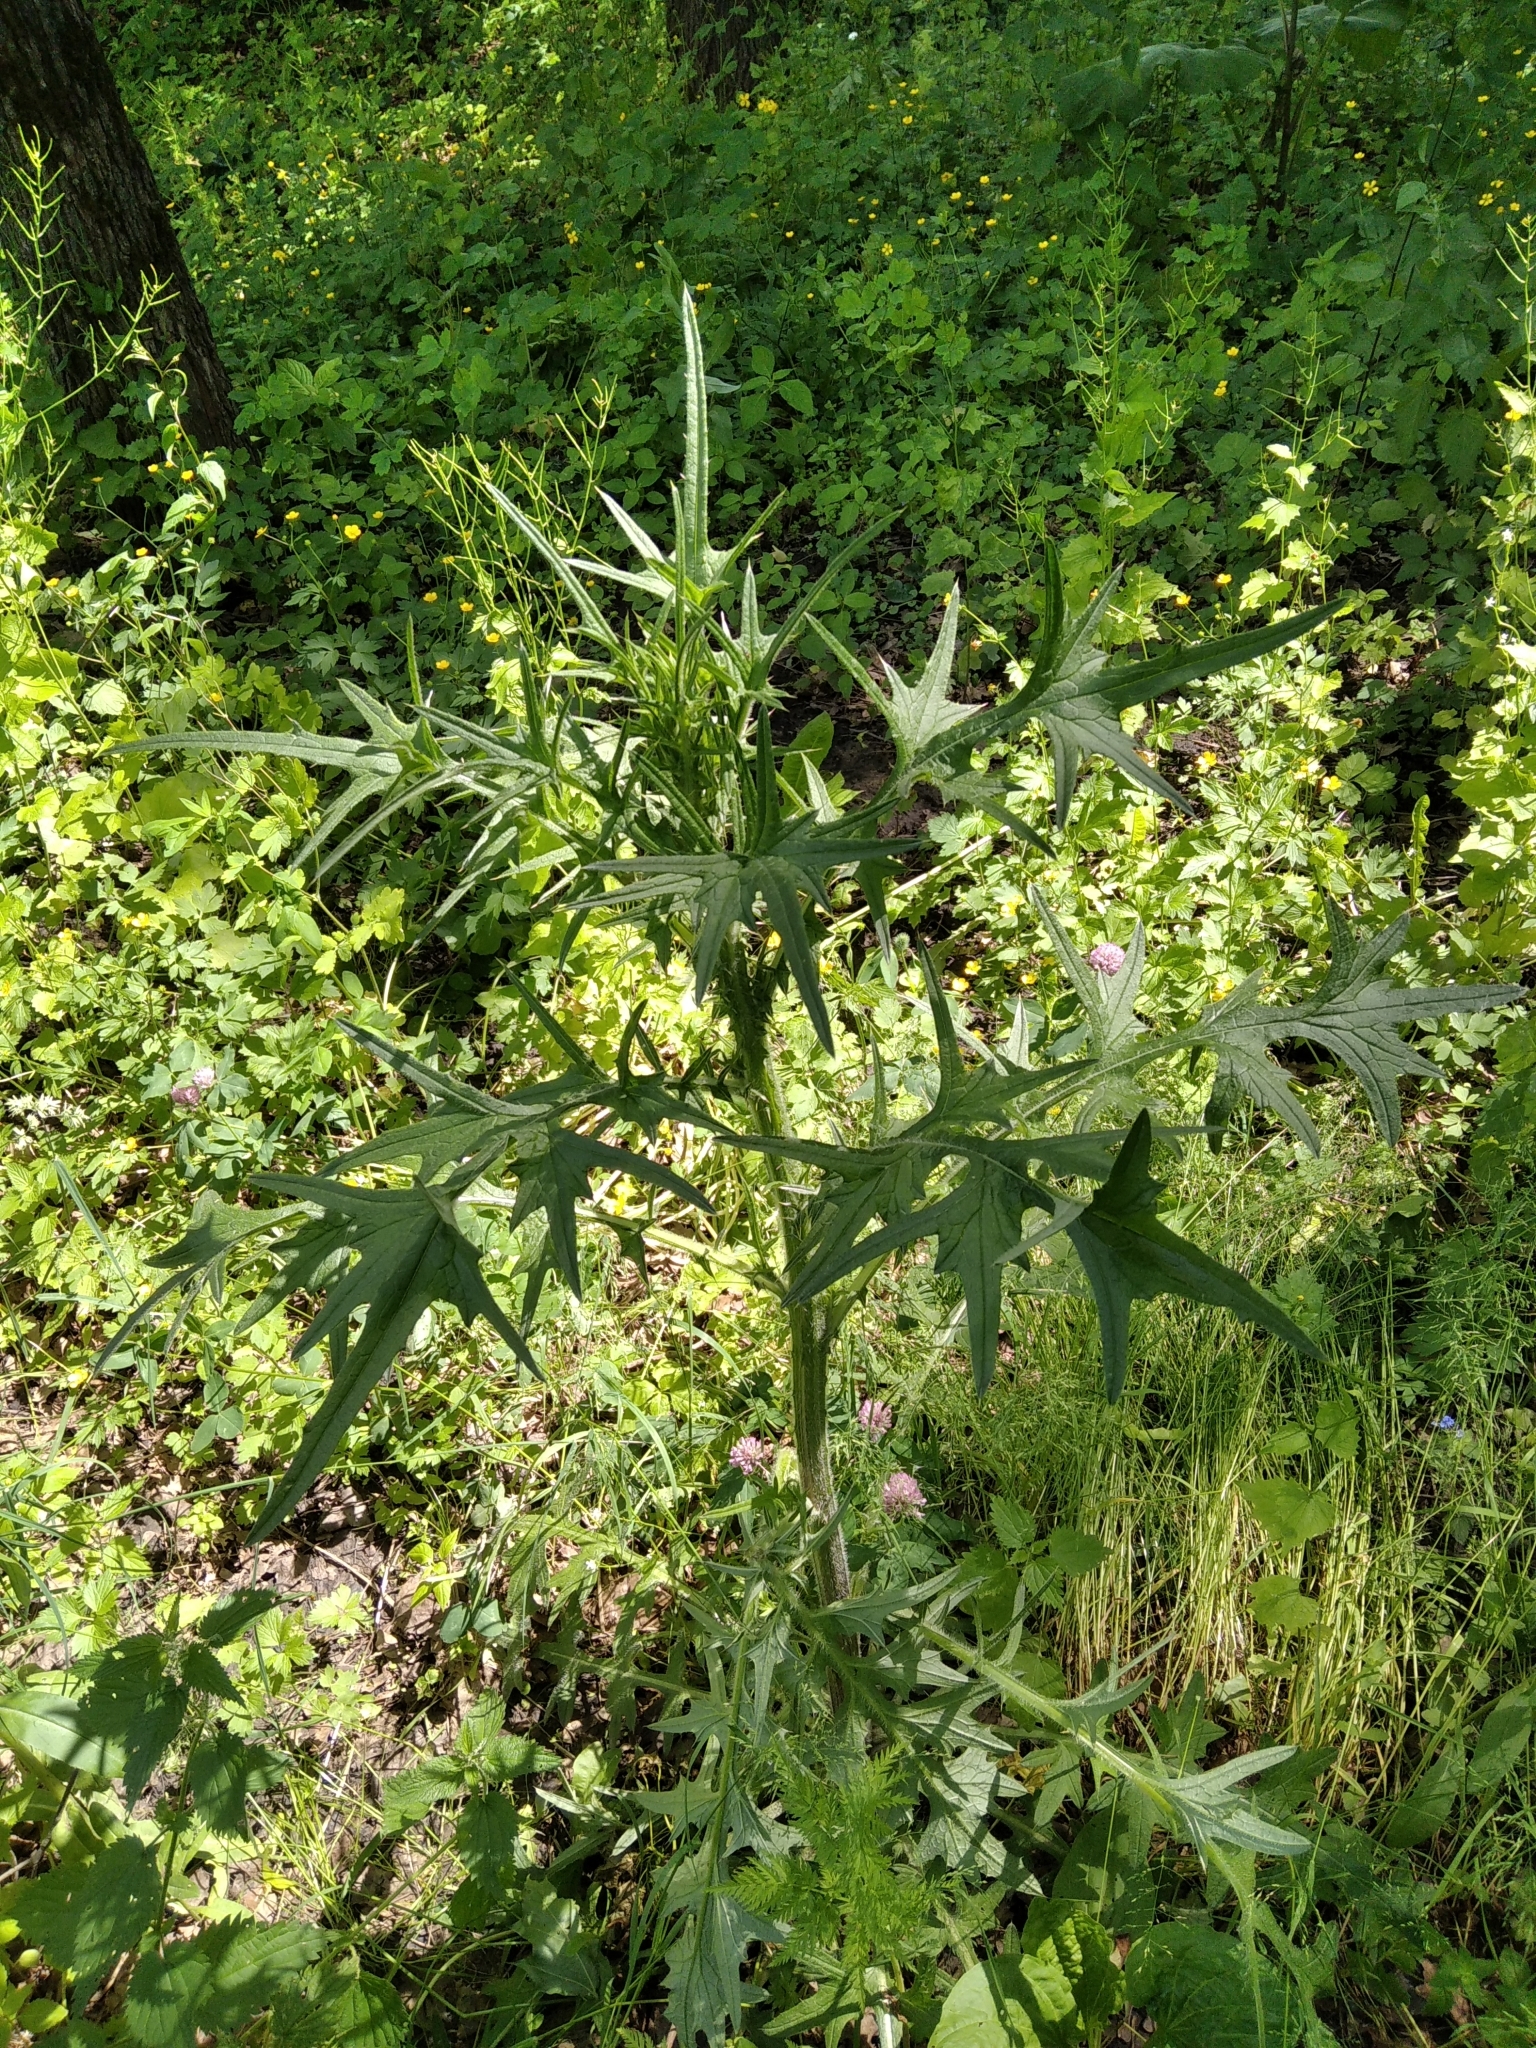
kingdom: Plantae
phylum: Tracheophyta
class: Magnoliopsida
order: Asterales
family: Asteraceae
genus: Cirsium
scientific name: Cirsium vulgare
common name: Bull thistle
